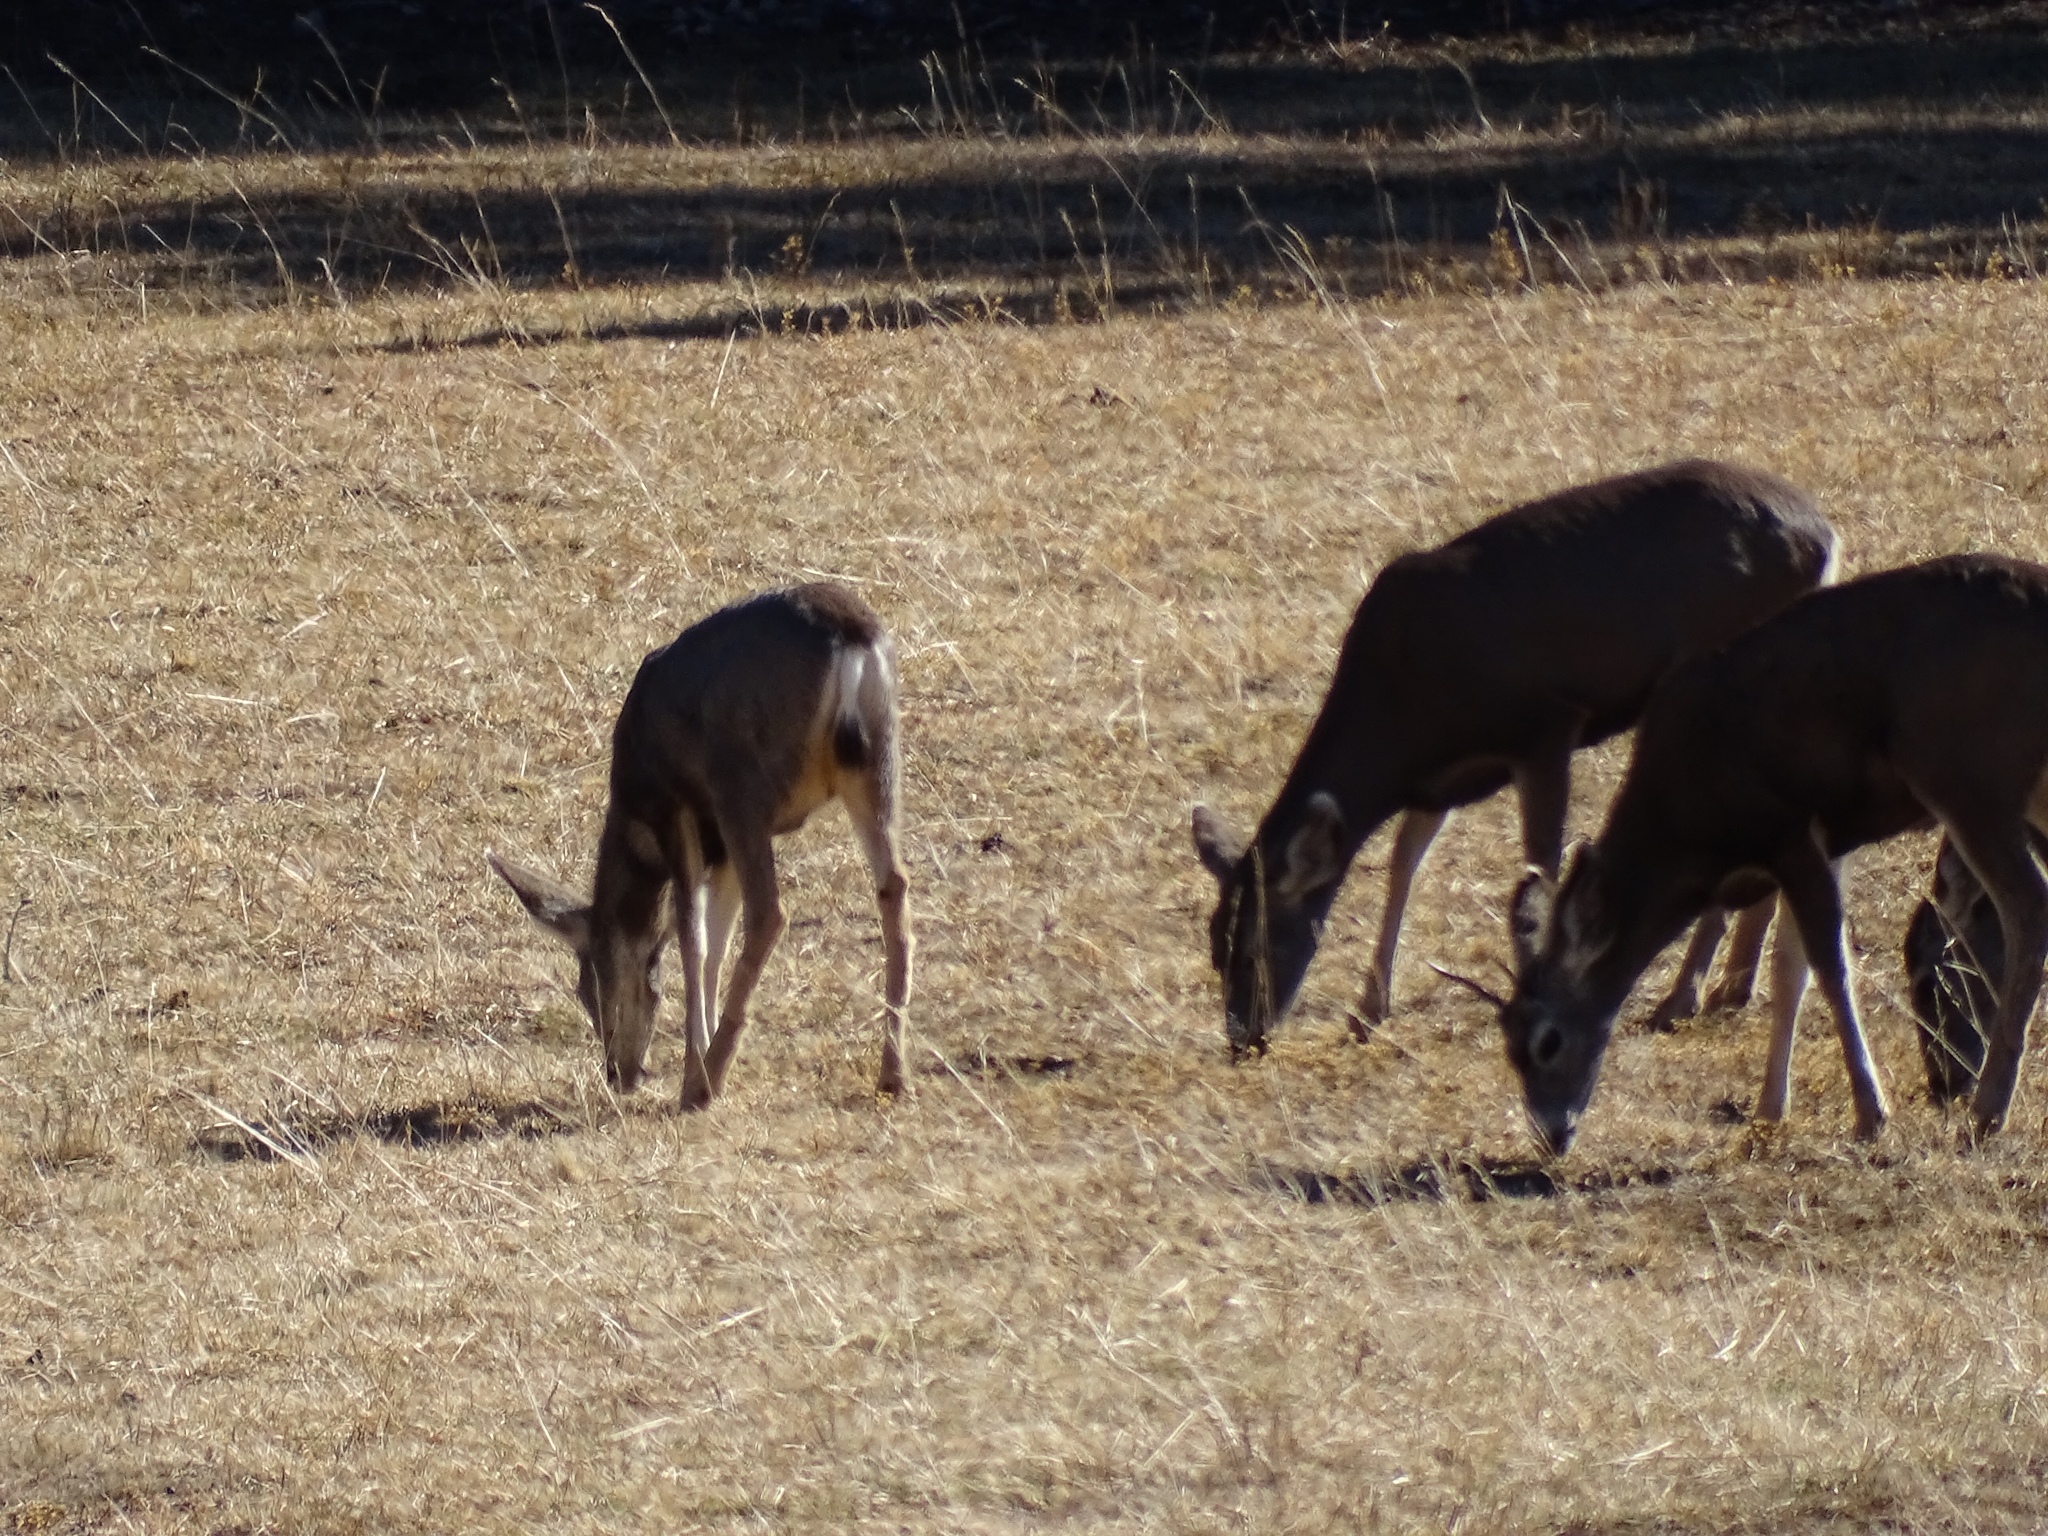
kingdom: Animalia
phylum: Chordata
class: Mammalia
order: Artiodactyla
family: Cervidae
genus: Odocoileus
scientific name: Odocoileus hemionus
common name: Mule deer
